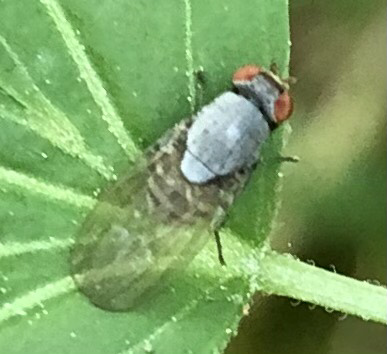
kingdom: Animalia
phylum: Arthropoda
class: Insecta
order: Diptera
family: Lauxaniidae
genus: Minettia
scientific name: Minettia magna
